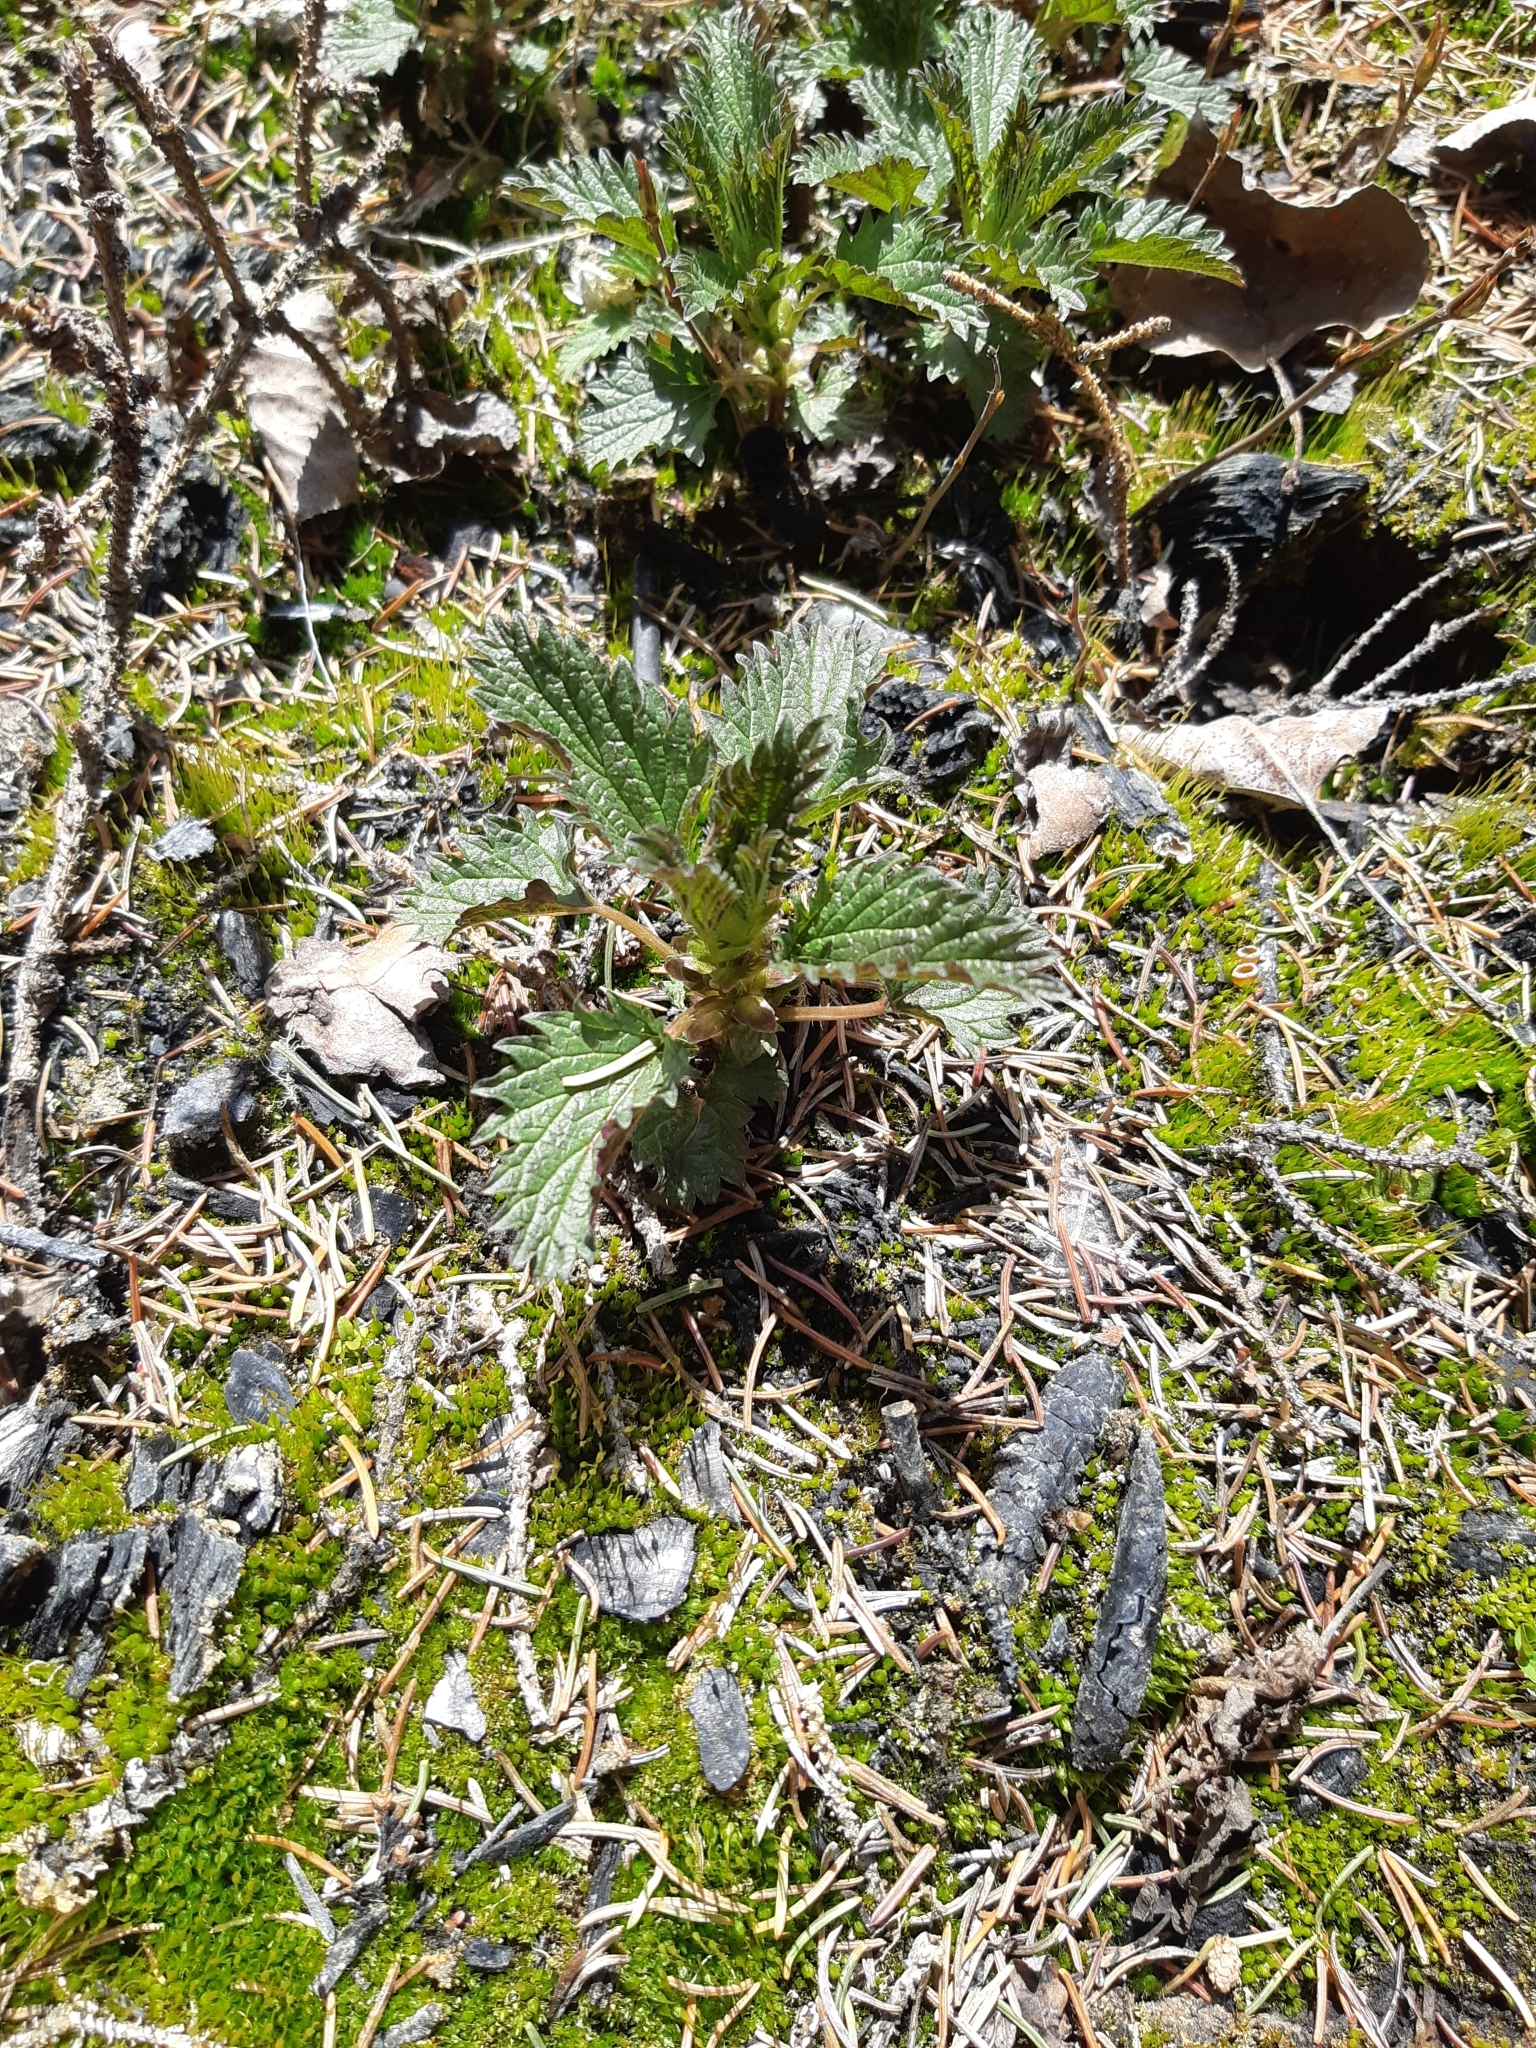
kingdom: Plantae
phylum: Tracheophyta
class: Magnoliopsida
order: Rosales
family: Urticaceae
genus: Urtica
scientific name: Urtica gracilis
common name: Slender stinging nettle
